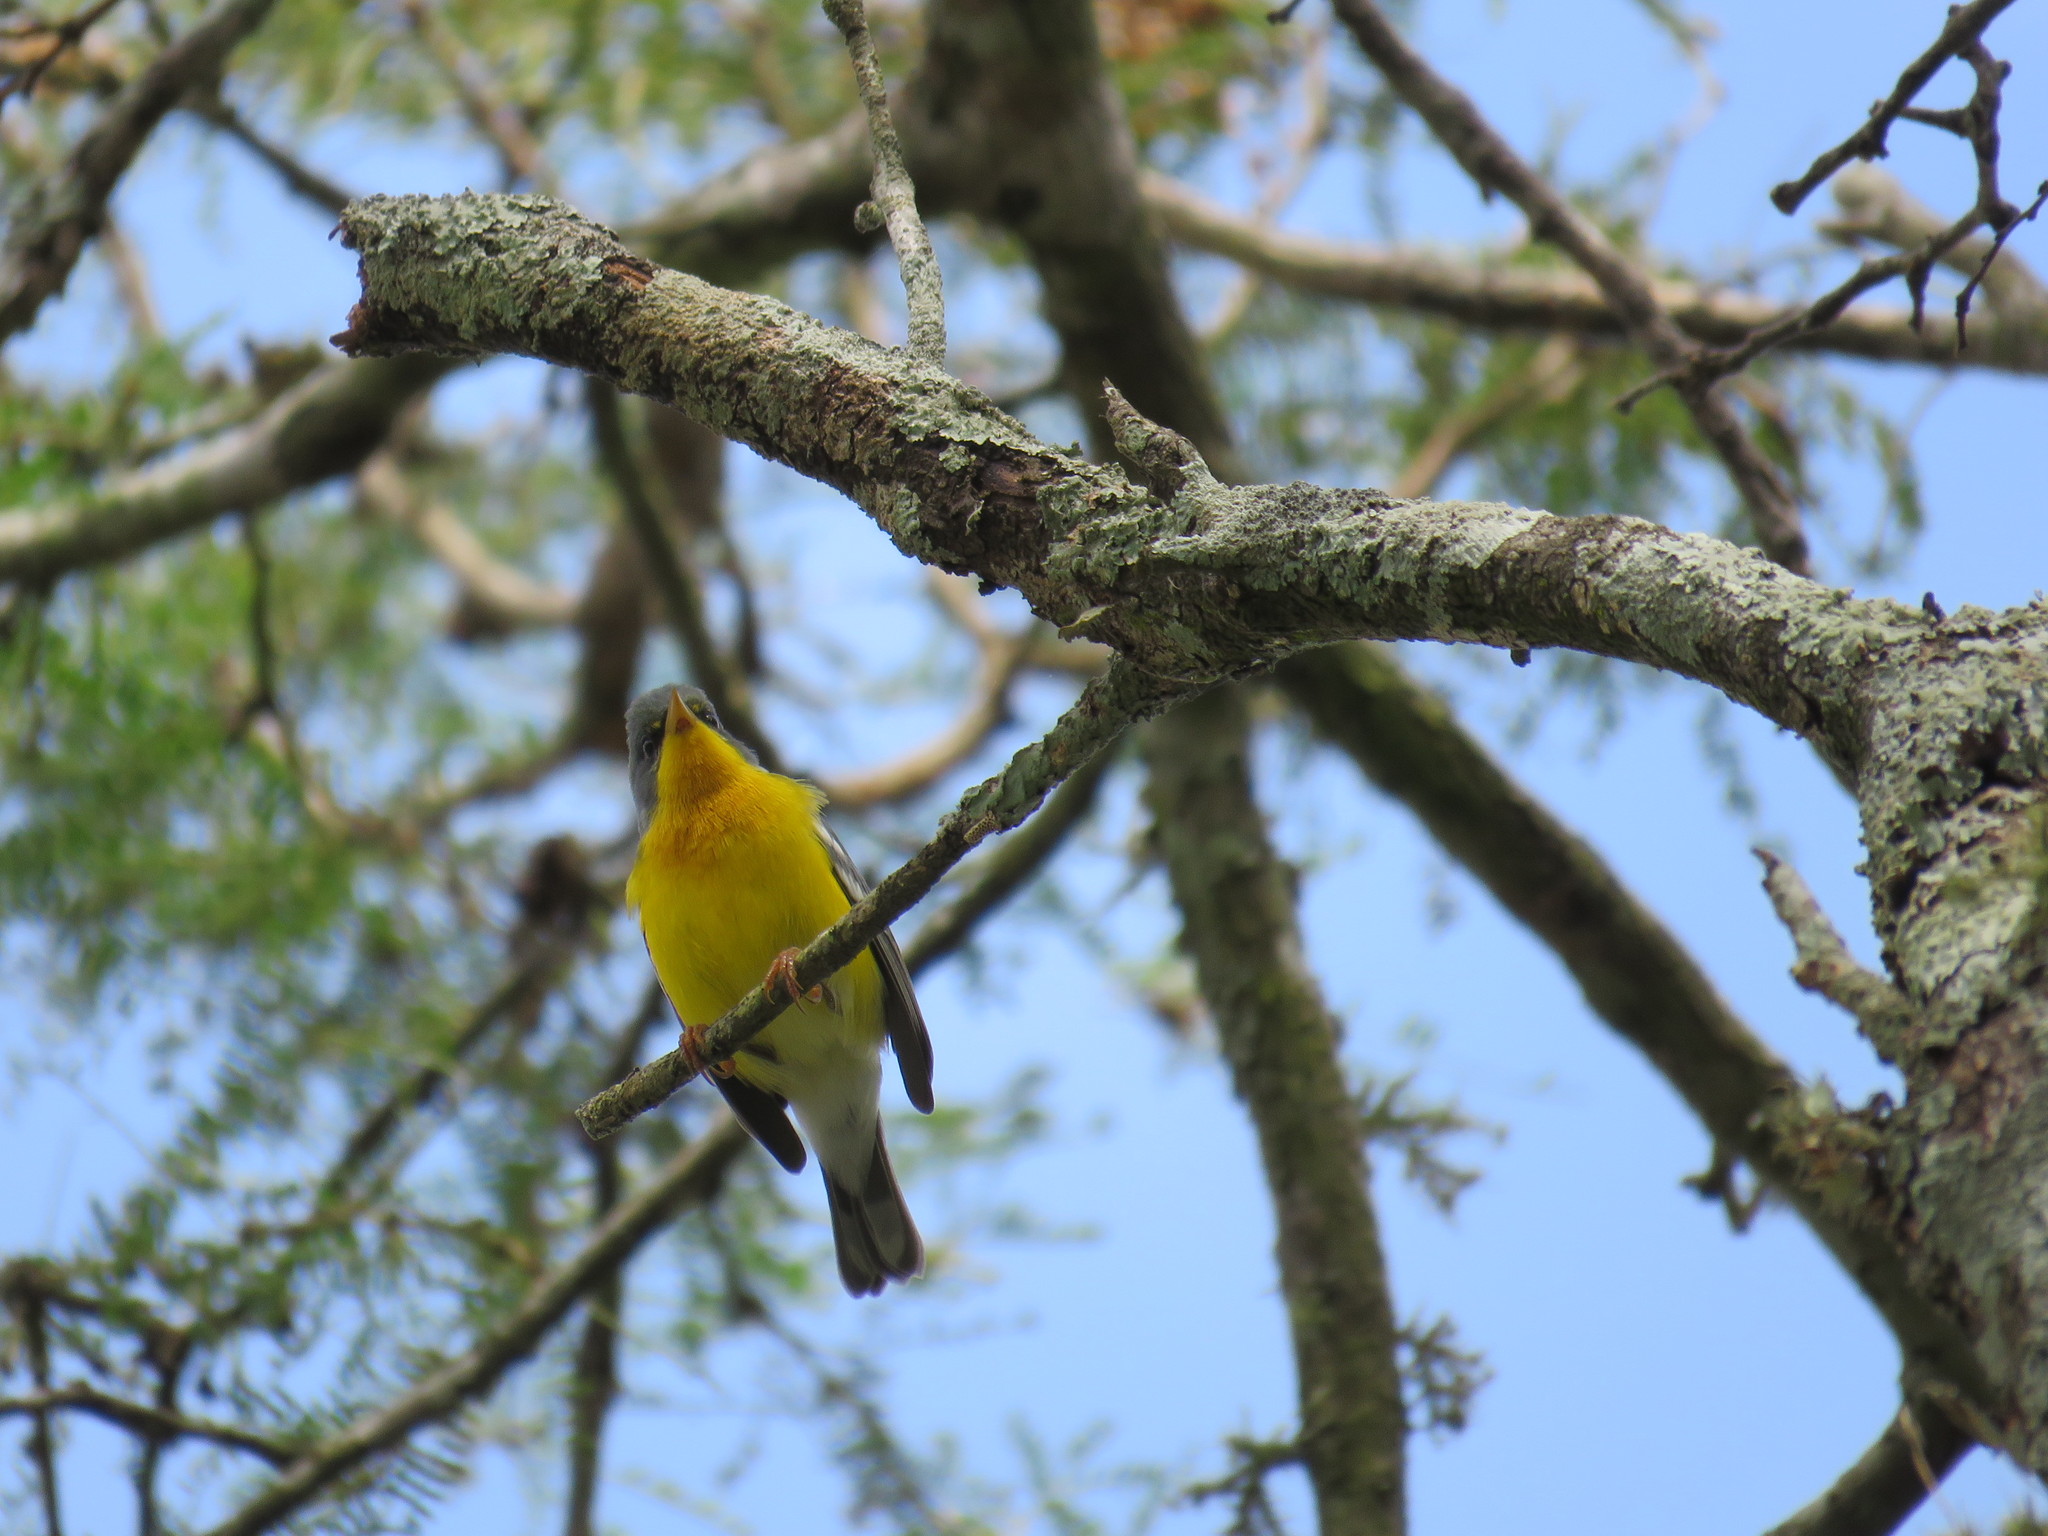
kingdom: Animalia
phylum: Chordata
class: Aves
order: Passeriformes
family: Parulidae
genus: Setophaga
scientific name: Setophaga pitiayumi
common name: Tropical parula
